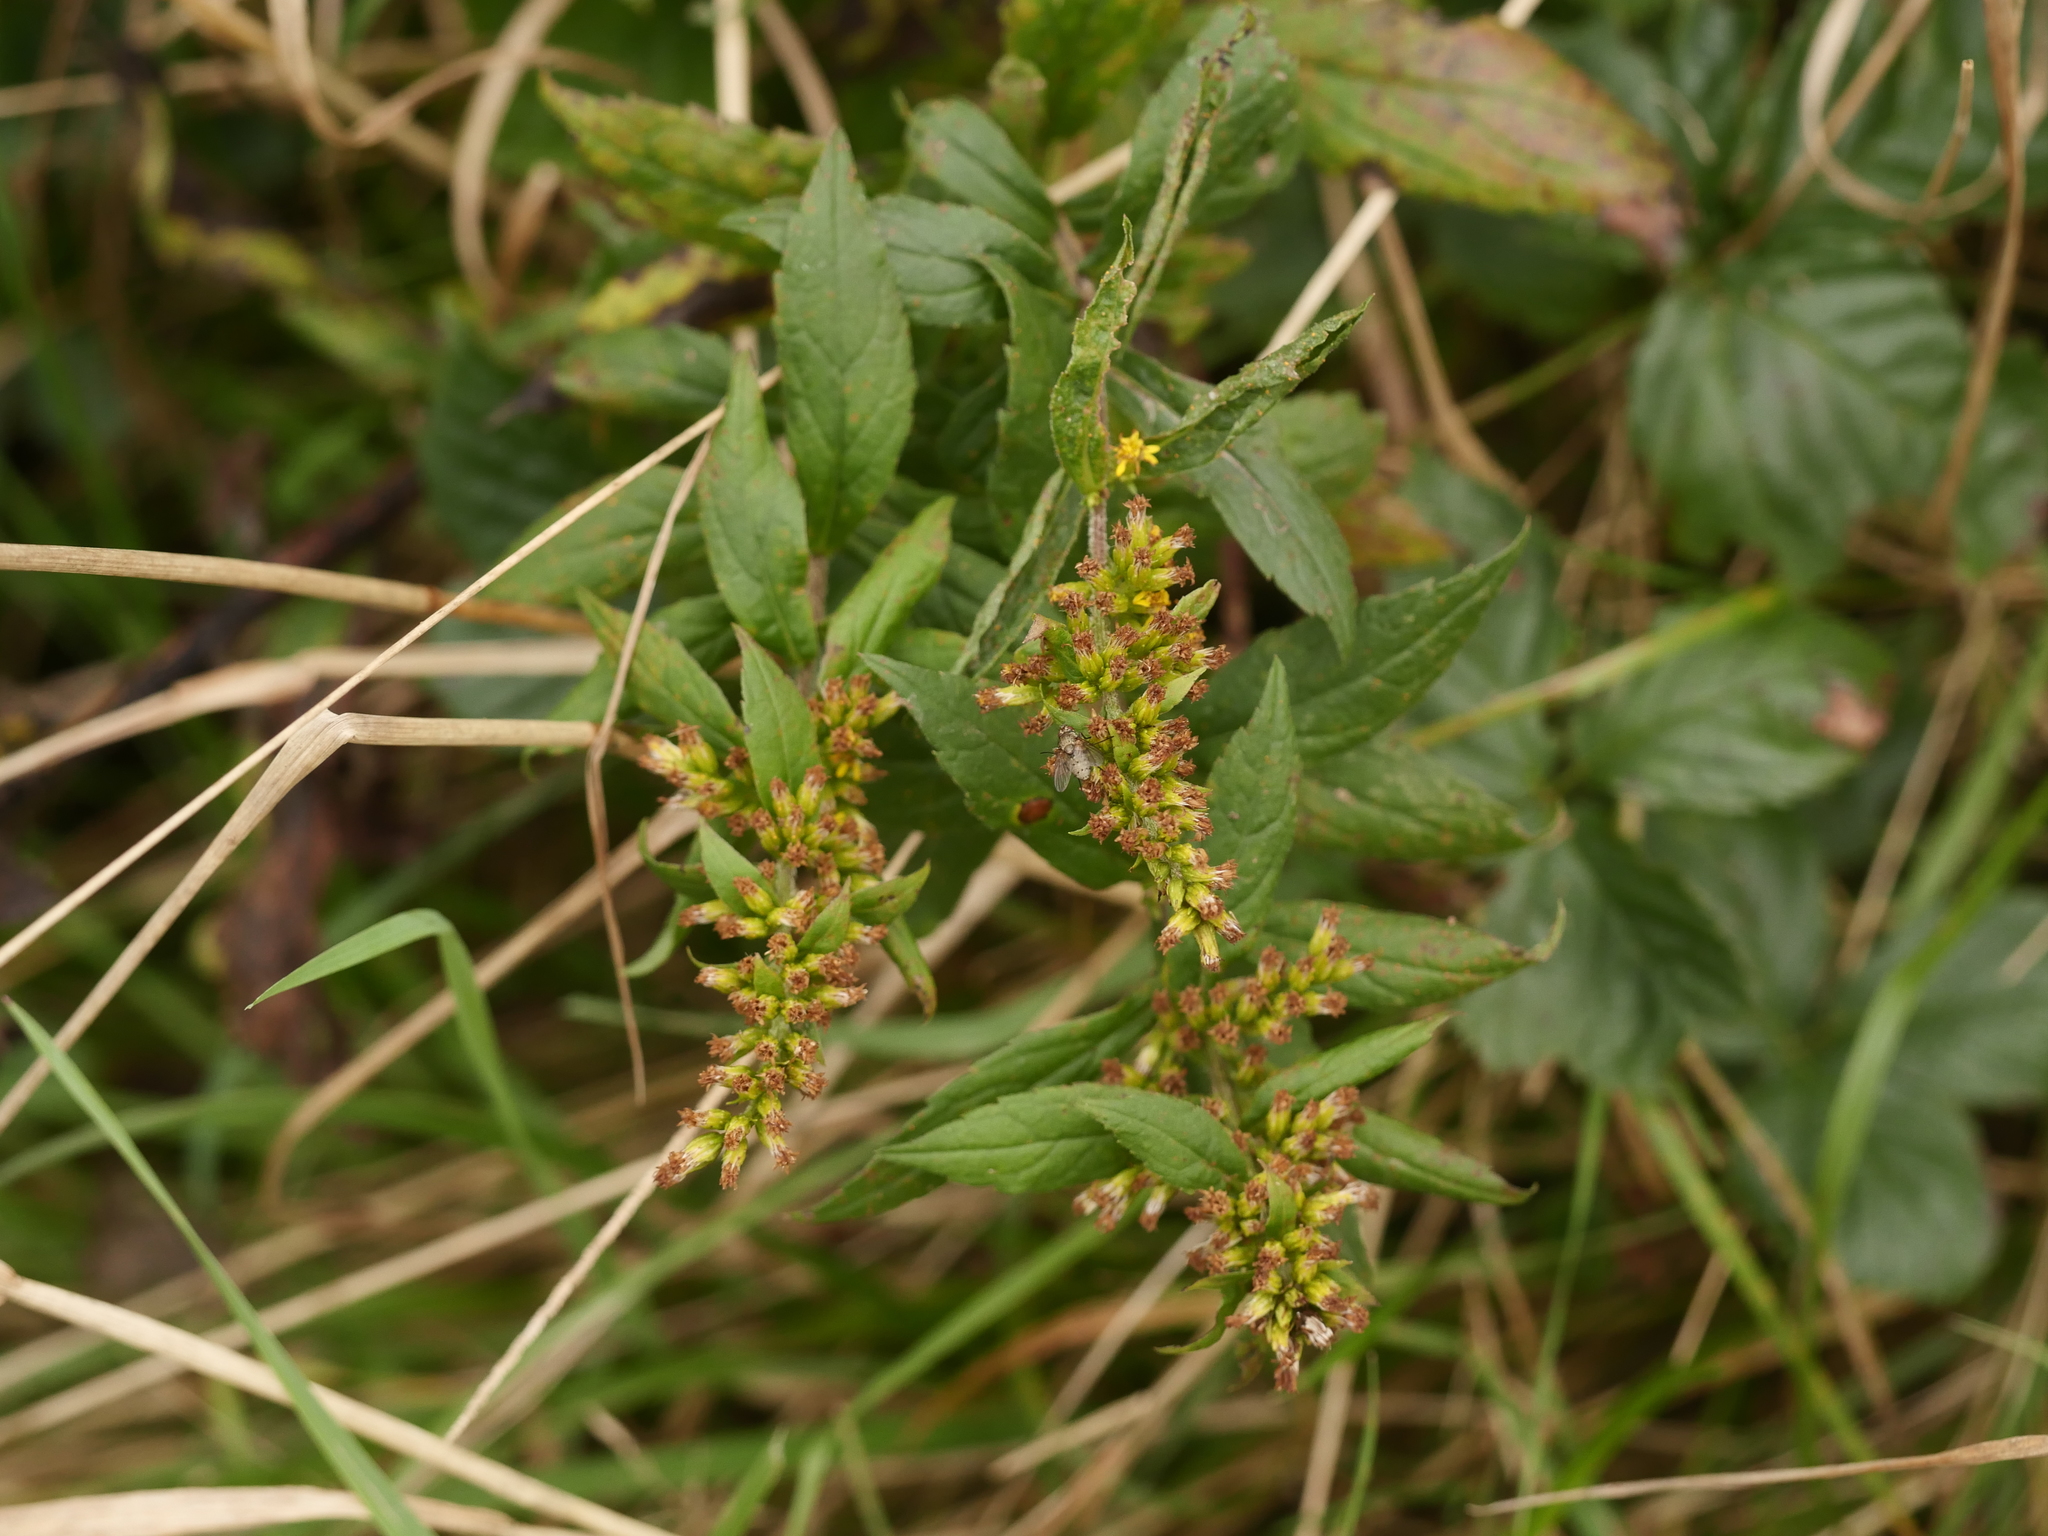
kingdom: Plantae
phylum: Tracheophyta
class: Magnoliopsida
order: Asterales
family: Asteraceae
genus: Solidago
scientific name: Solidago rugosa
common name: Rough-stemmed goldenrod
